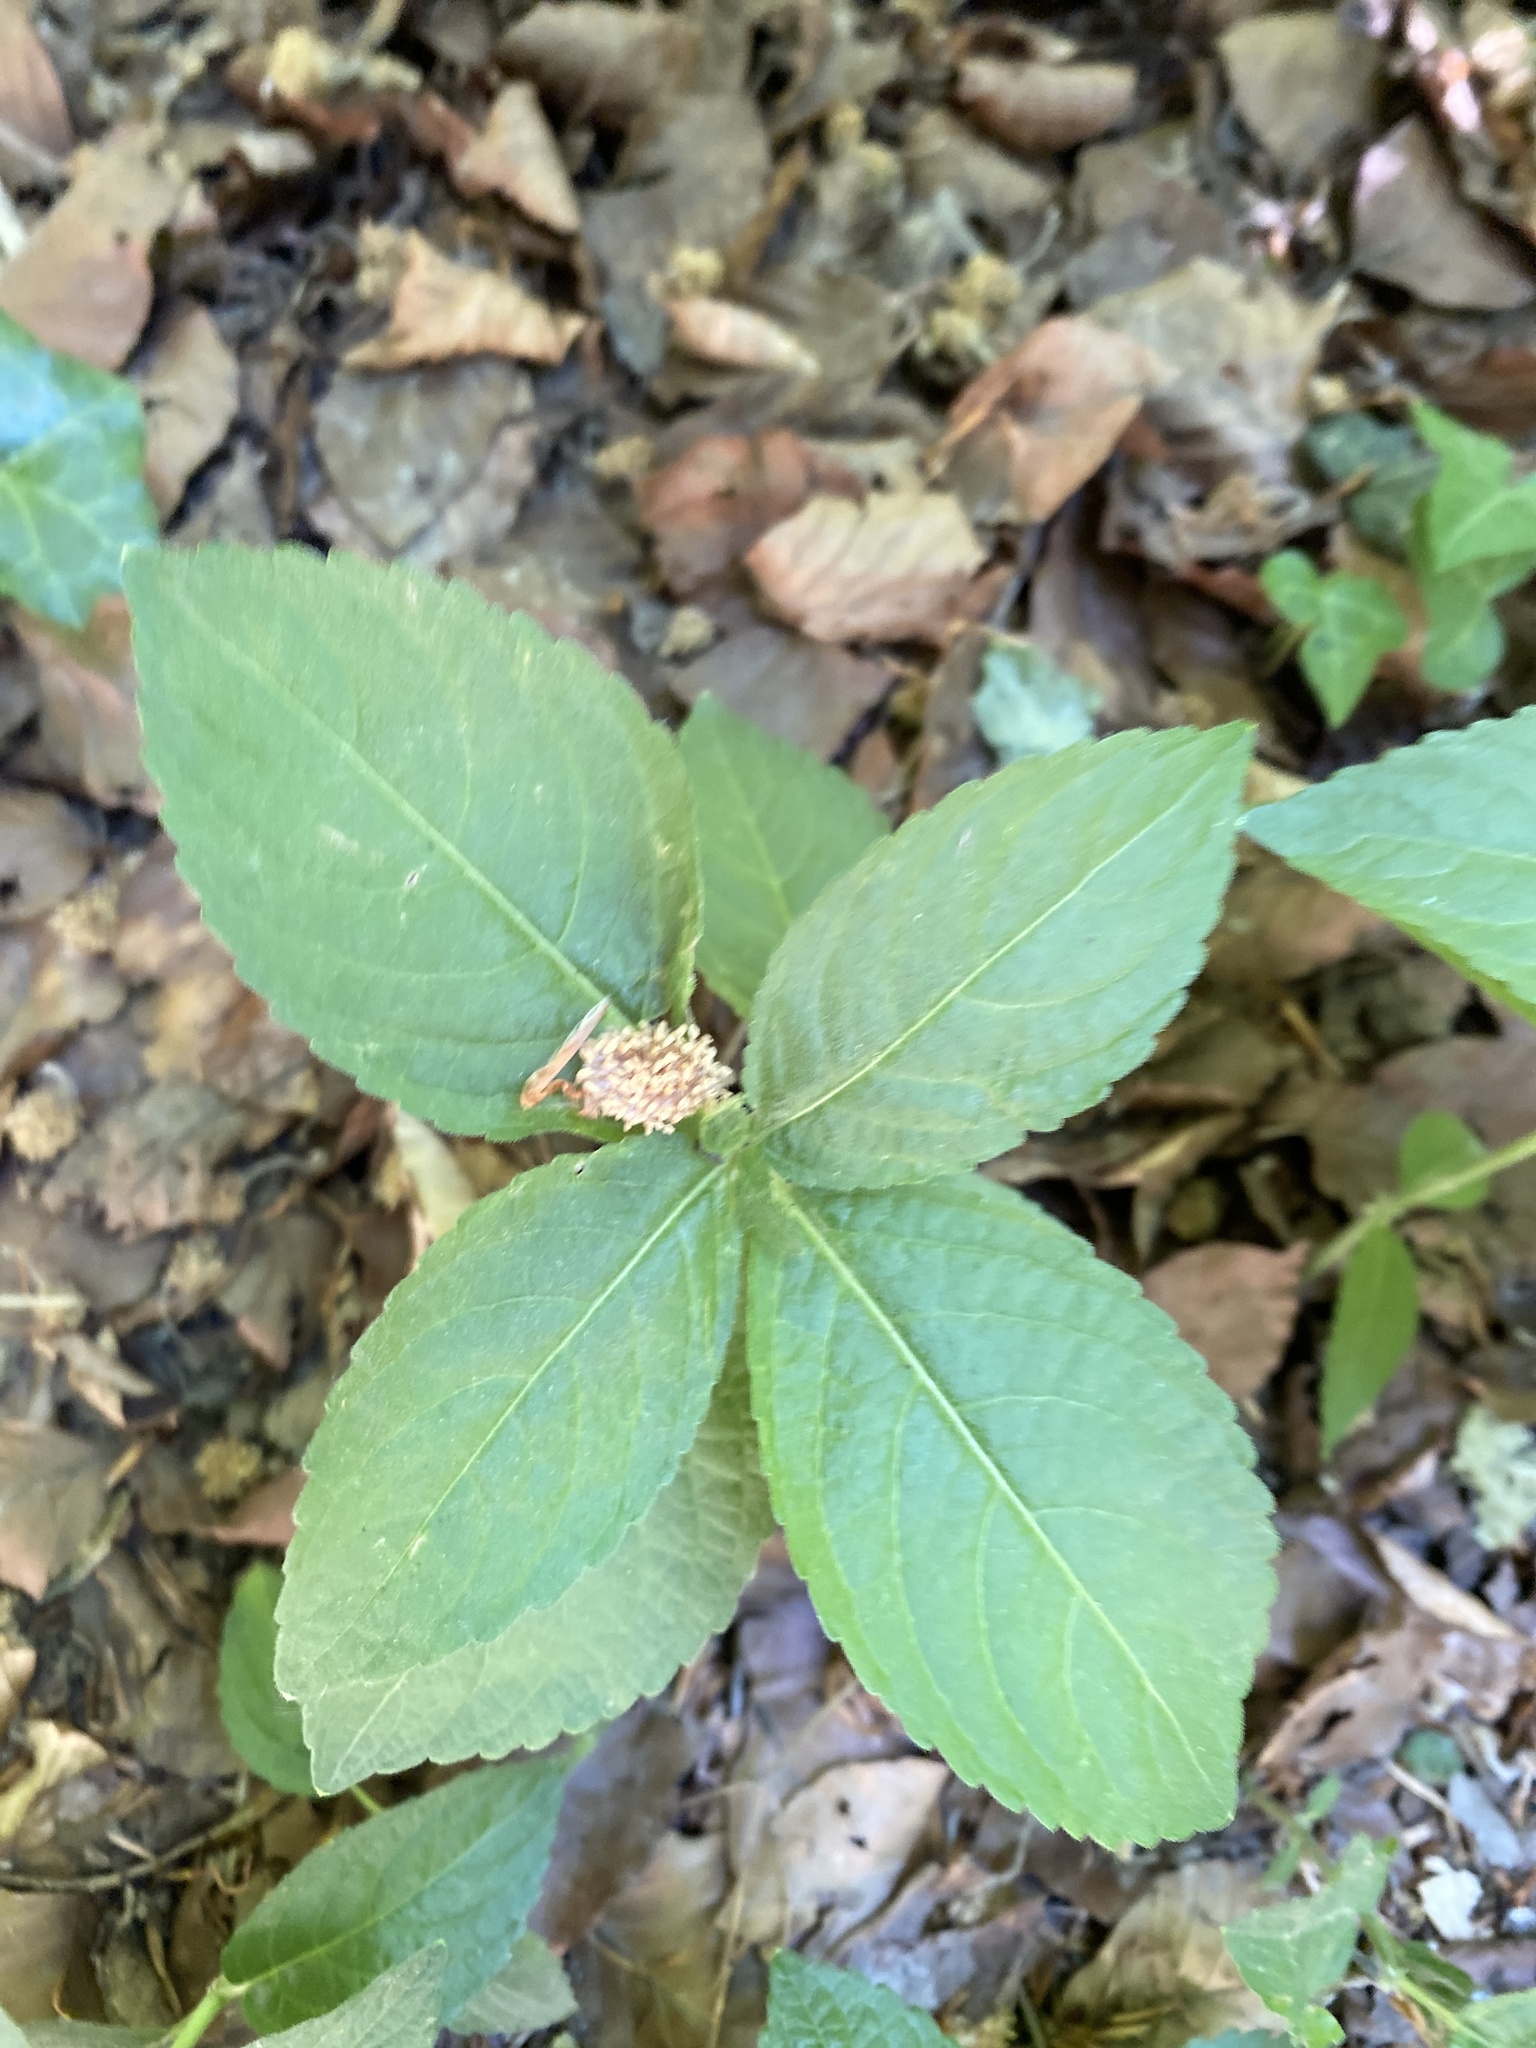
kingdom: Plantae
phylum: Tracheophyta
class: Magnoliopsida
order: Malpighiales
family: Euphorbiaceae
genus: Mercurialis
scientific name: Mercurialis perennis
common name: Dog mercury
